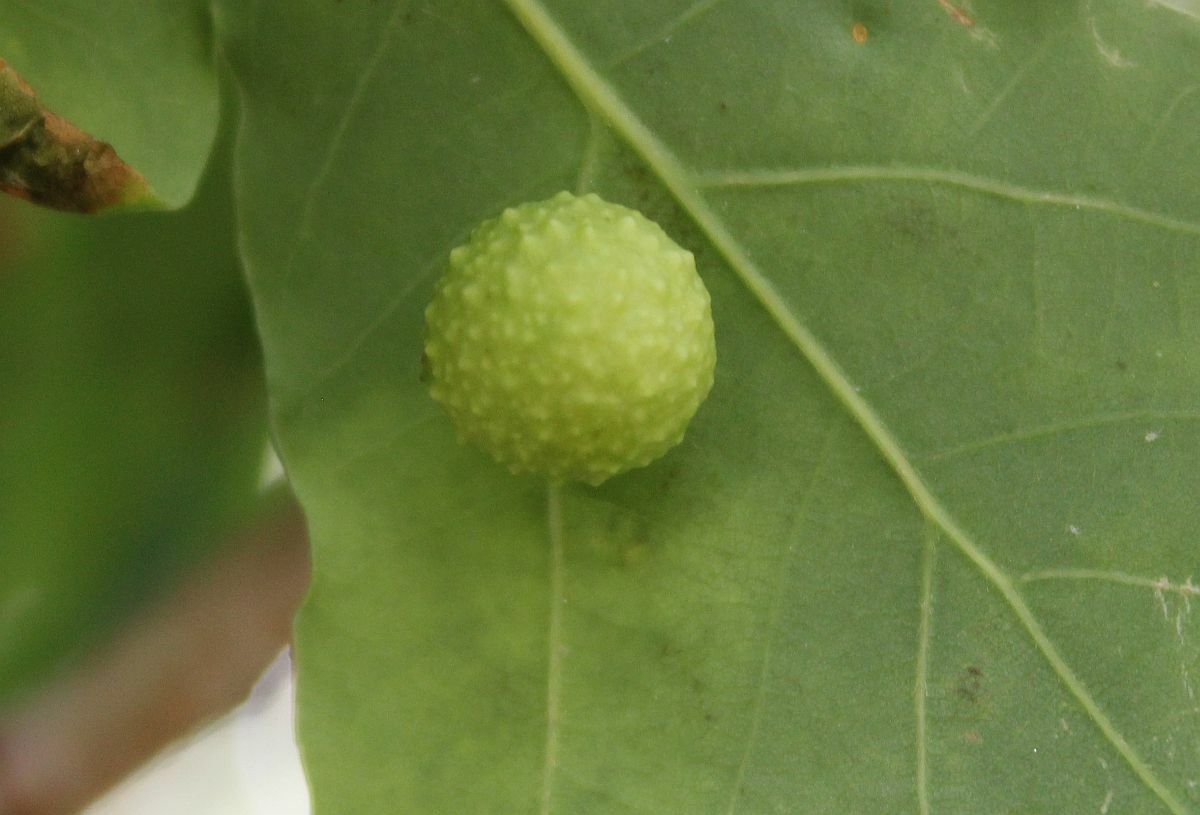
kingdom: Animalia
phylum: Arthropoda
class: Insecta
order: Hymenoptera
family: Cynipidae
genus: Cynips
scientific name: Cynips quercusfolii
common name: Cherry gall
